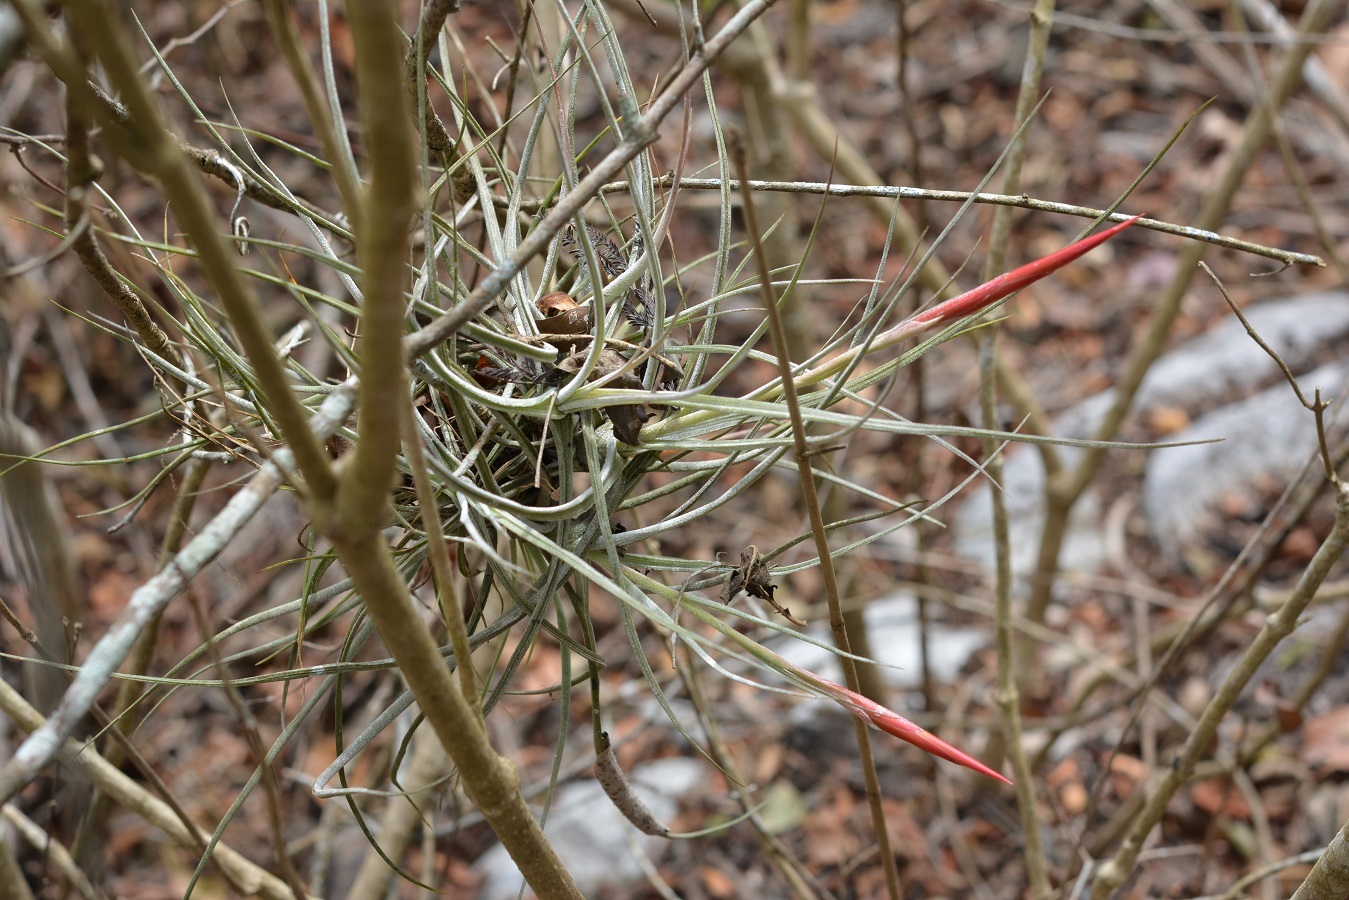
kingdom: Plantae
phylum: Tracheophyta
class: Liliopsida
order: Poales
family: Bromeliaceae
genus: Tillandsia
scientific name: Tillandsia schiedeana
